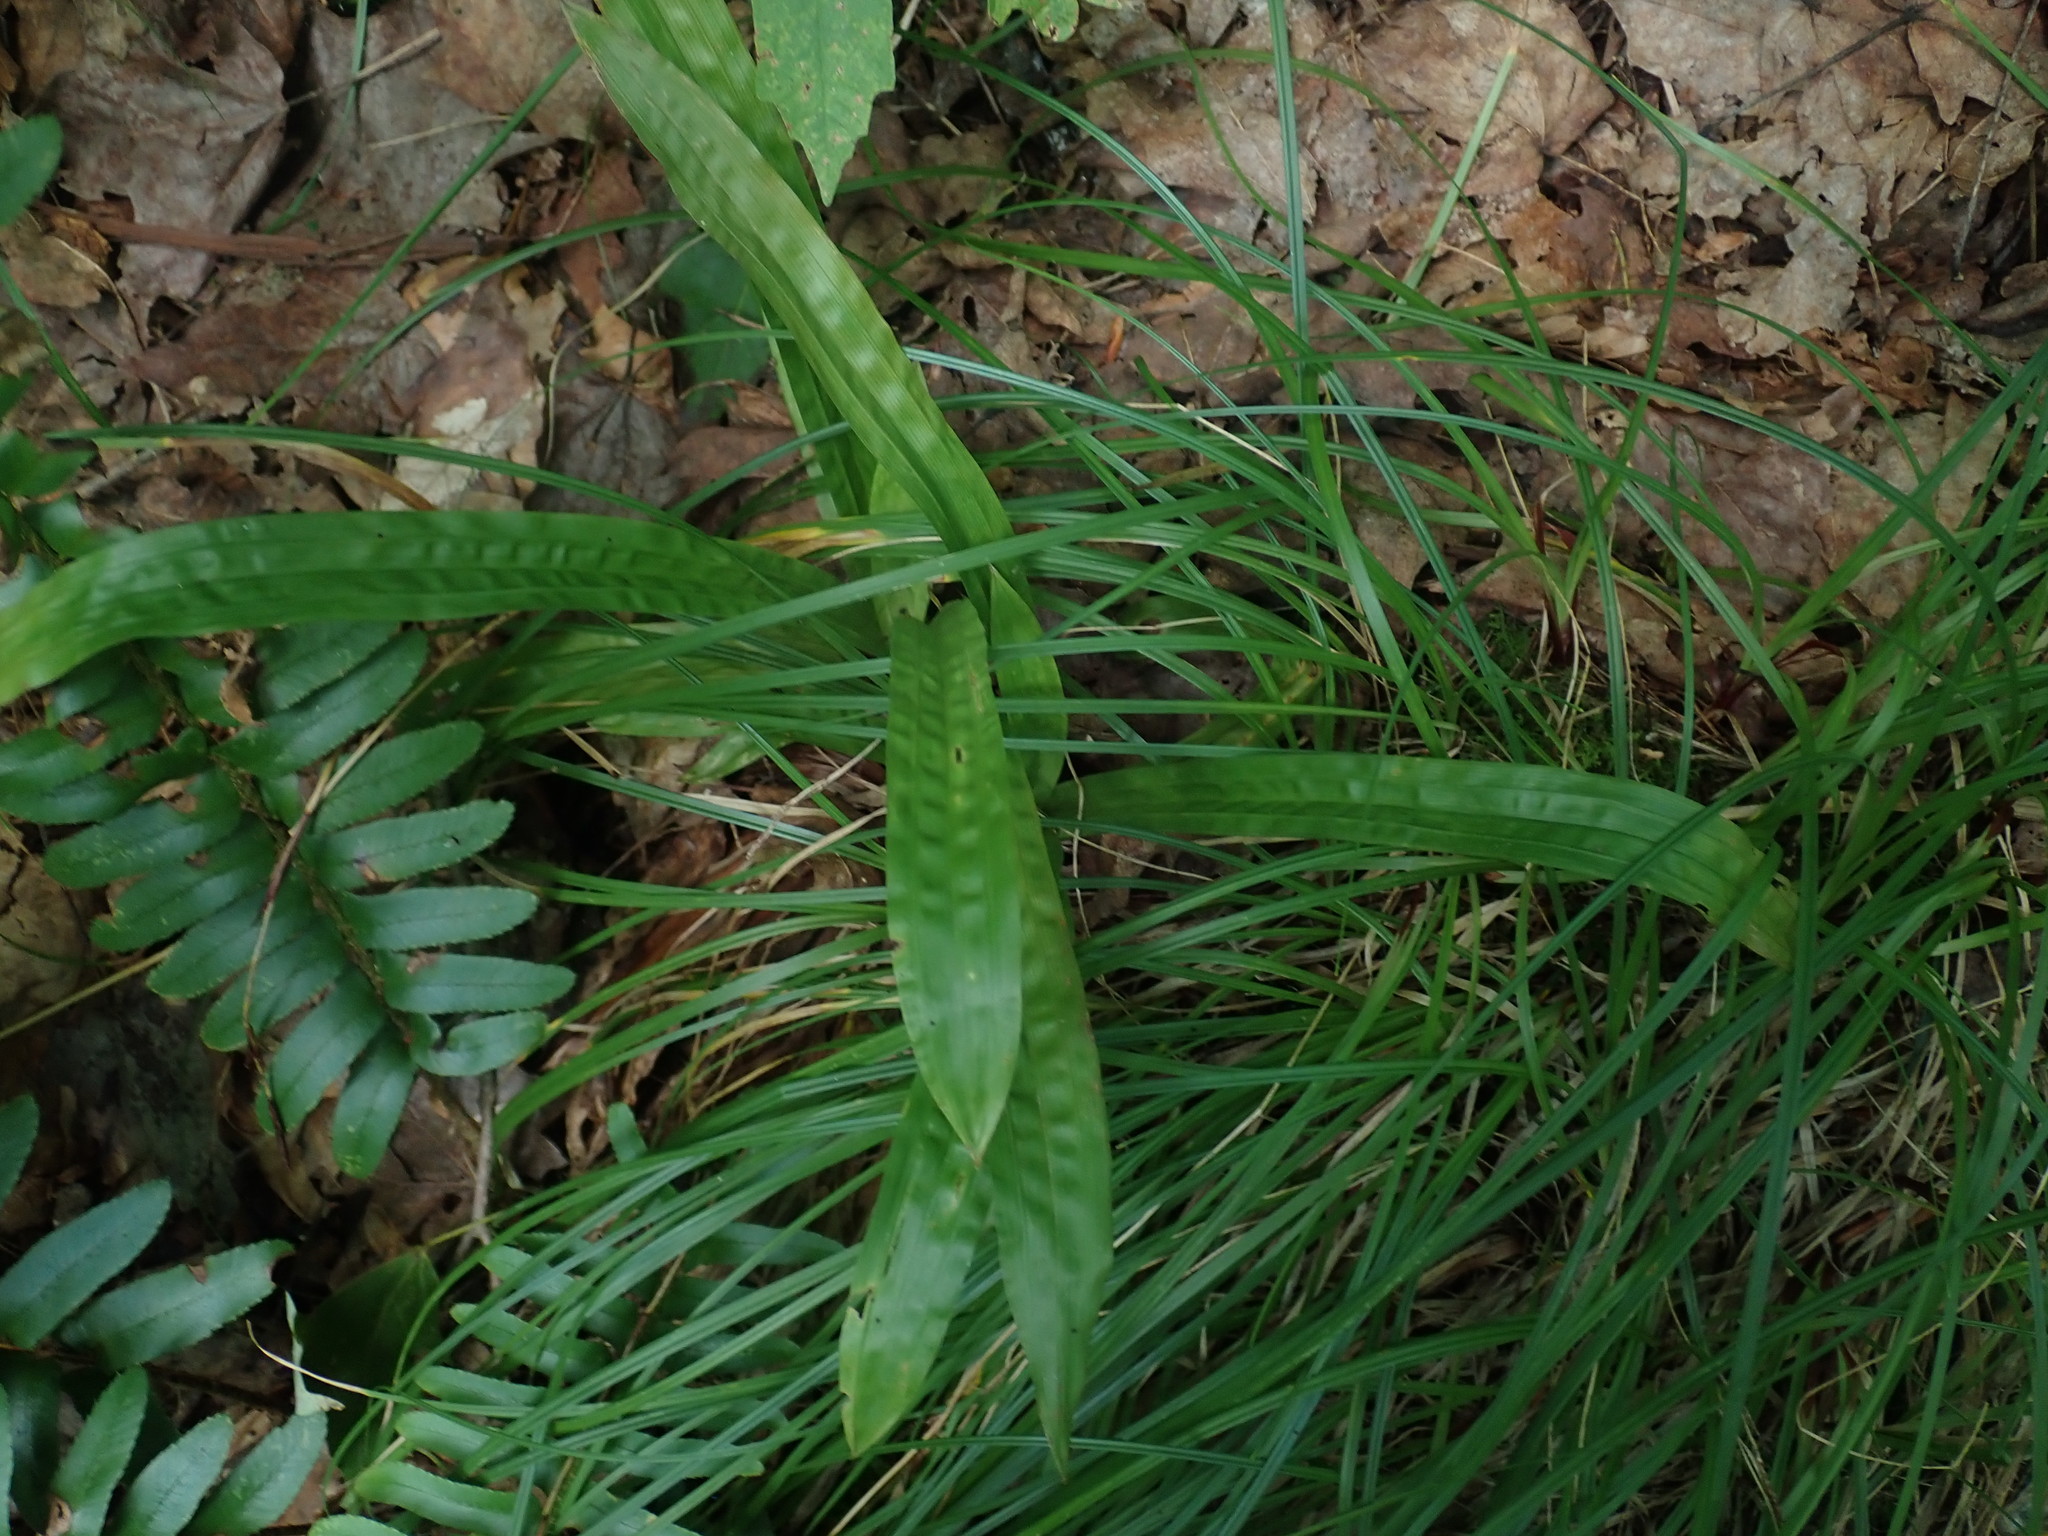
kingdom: Plantae
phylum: Tracheophyta
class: Liliopsida
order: Poales
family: Cyperaceae
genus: Carex
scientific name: Carex plantaginea
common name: Plantain-leaved sedge
